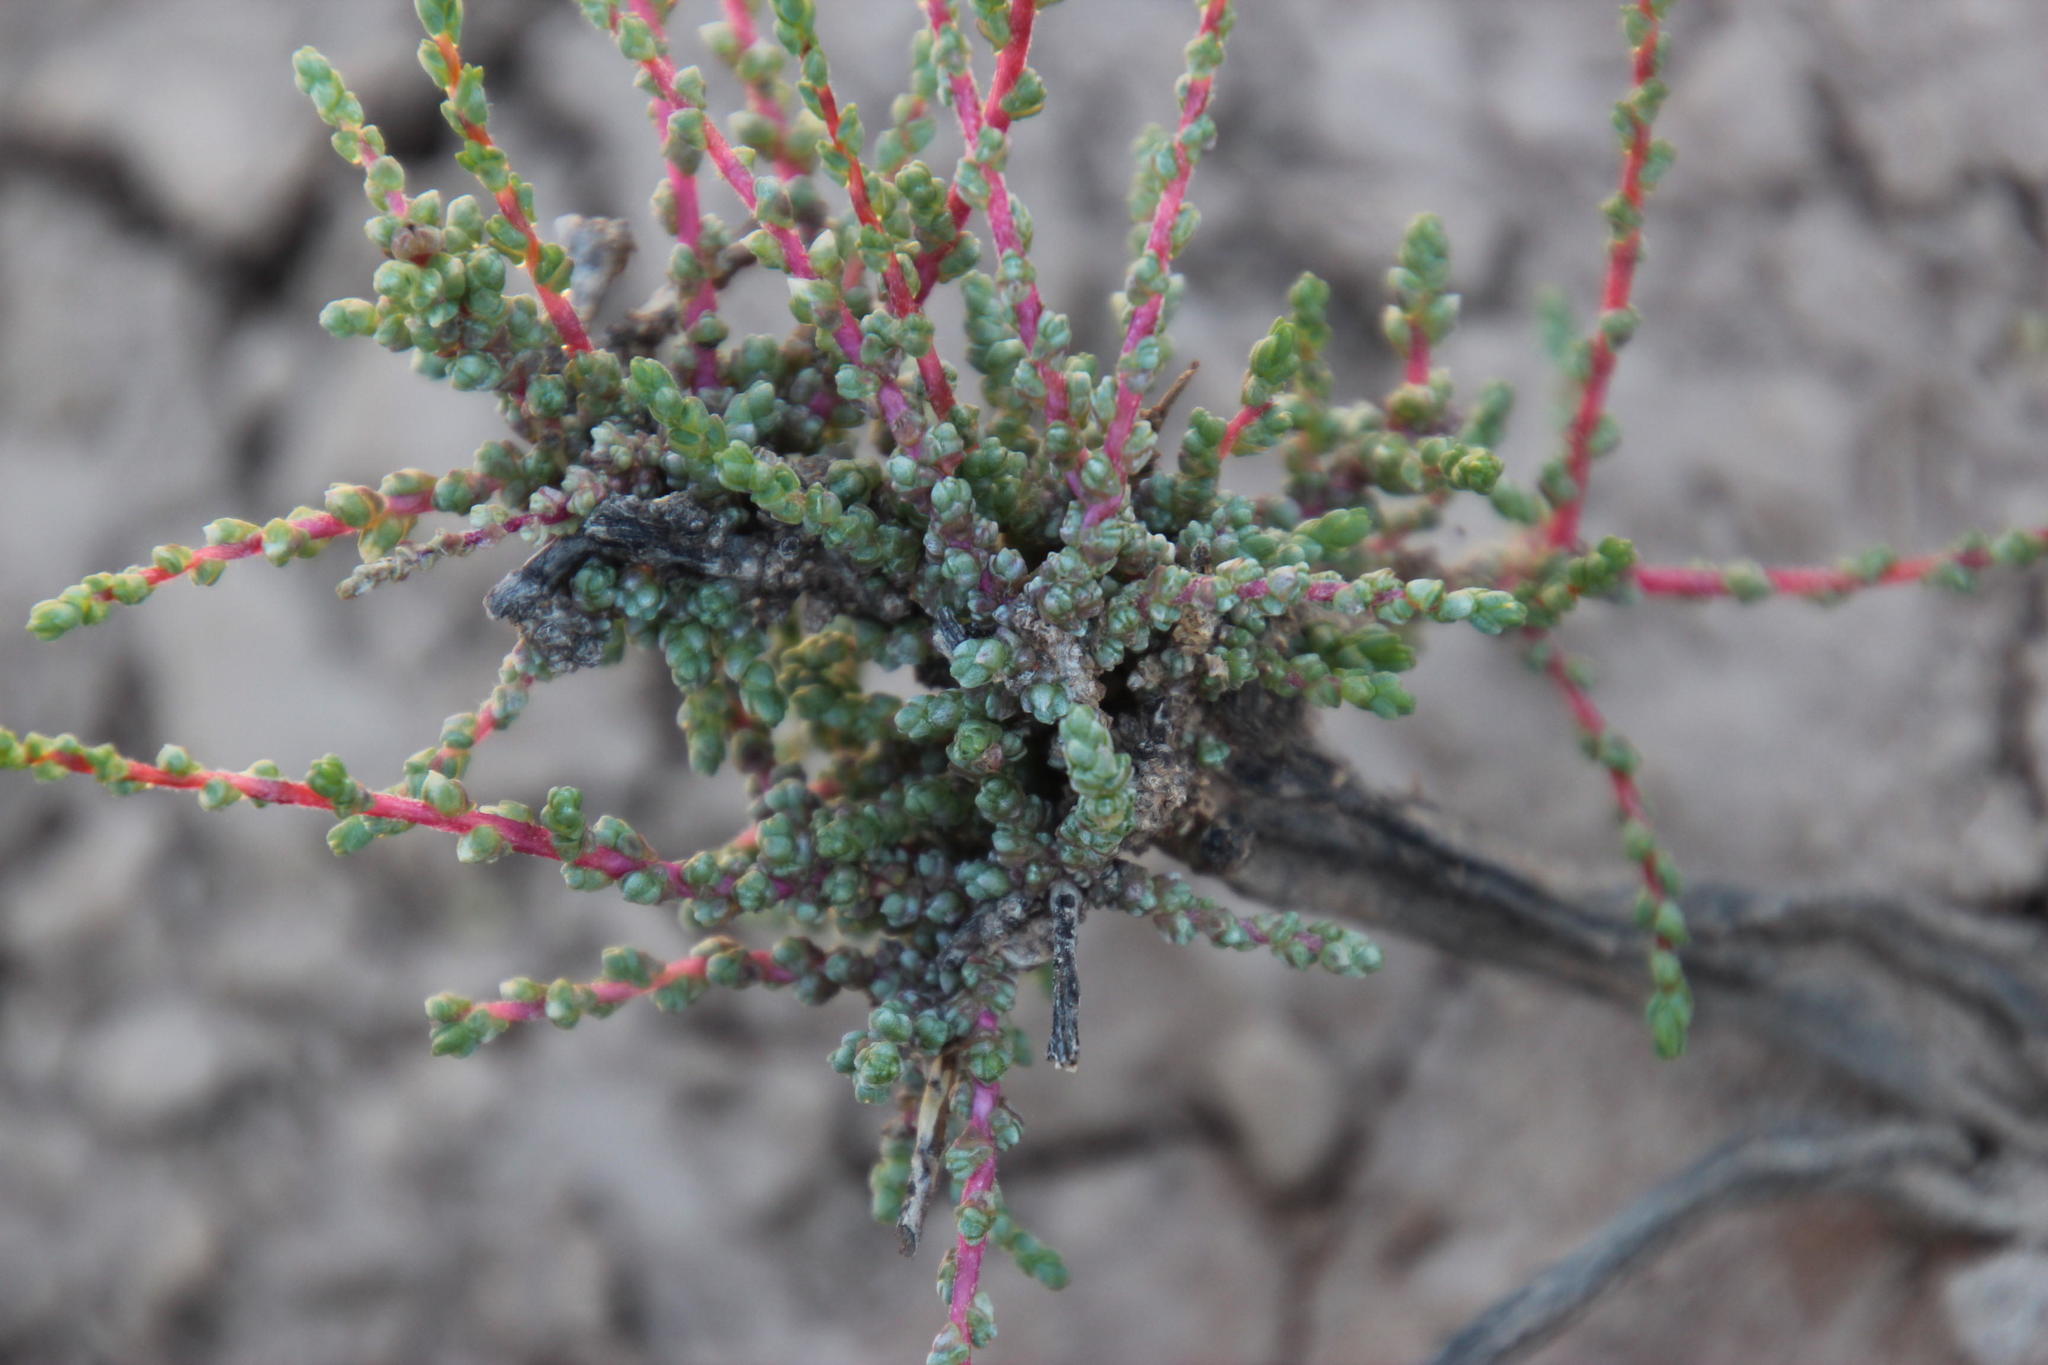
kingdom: Plantae
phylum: Tracheophyta
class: Magnoliopsida
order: Caryophyllales
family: Amaranthaceae
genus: Caroxylon
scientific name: Caroxylon calluna
